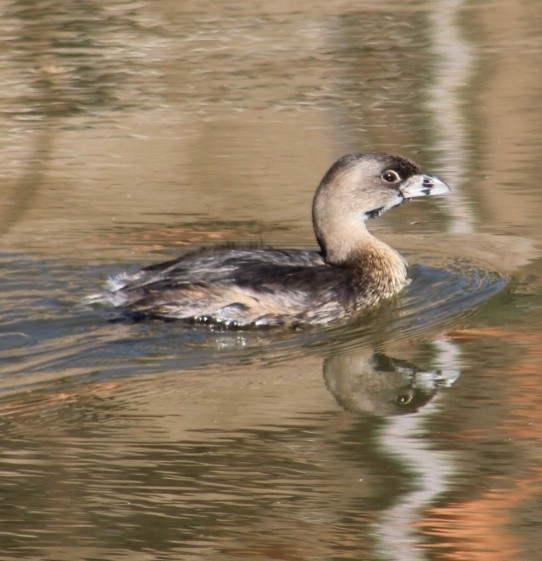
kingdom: Animalia
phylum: Chordata
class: Aves
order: Podicipediformes
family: Podicipedidae
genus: Podilymbus
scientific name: Podilymbus podiceps
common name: Pied-billed grebe
